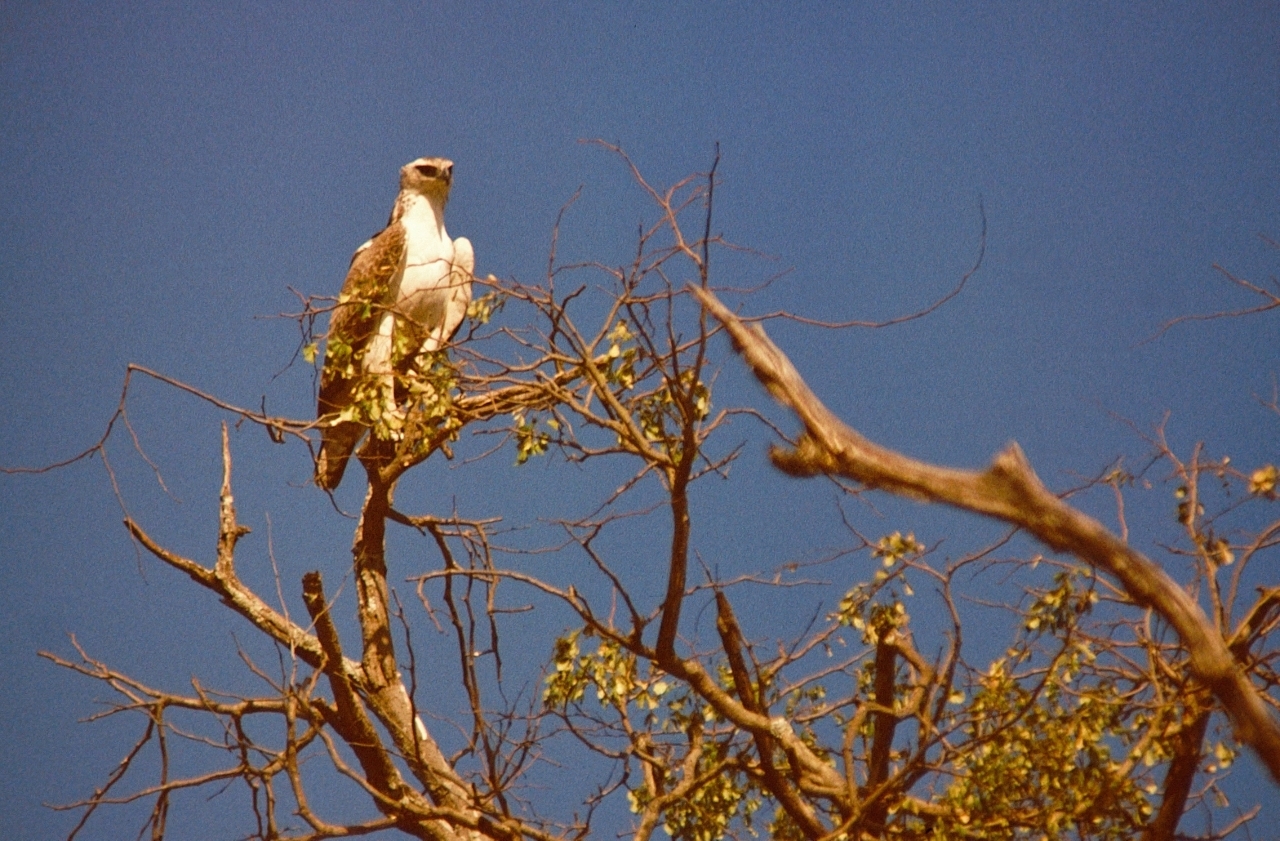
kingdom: Animalia
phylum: Chordata
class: Aves
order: Accipitriformes
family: Accipitridae
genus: Polemaetus
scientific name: Polemaetus bellicosus
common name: Martial eagle
